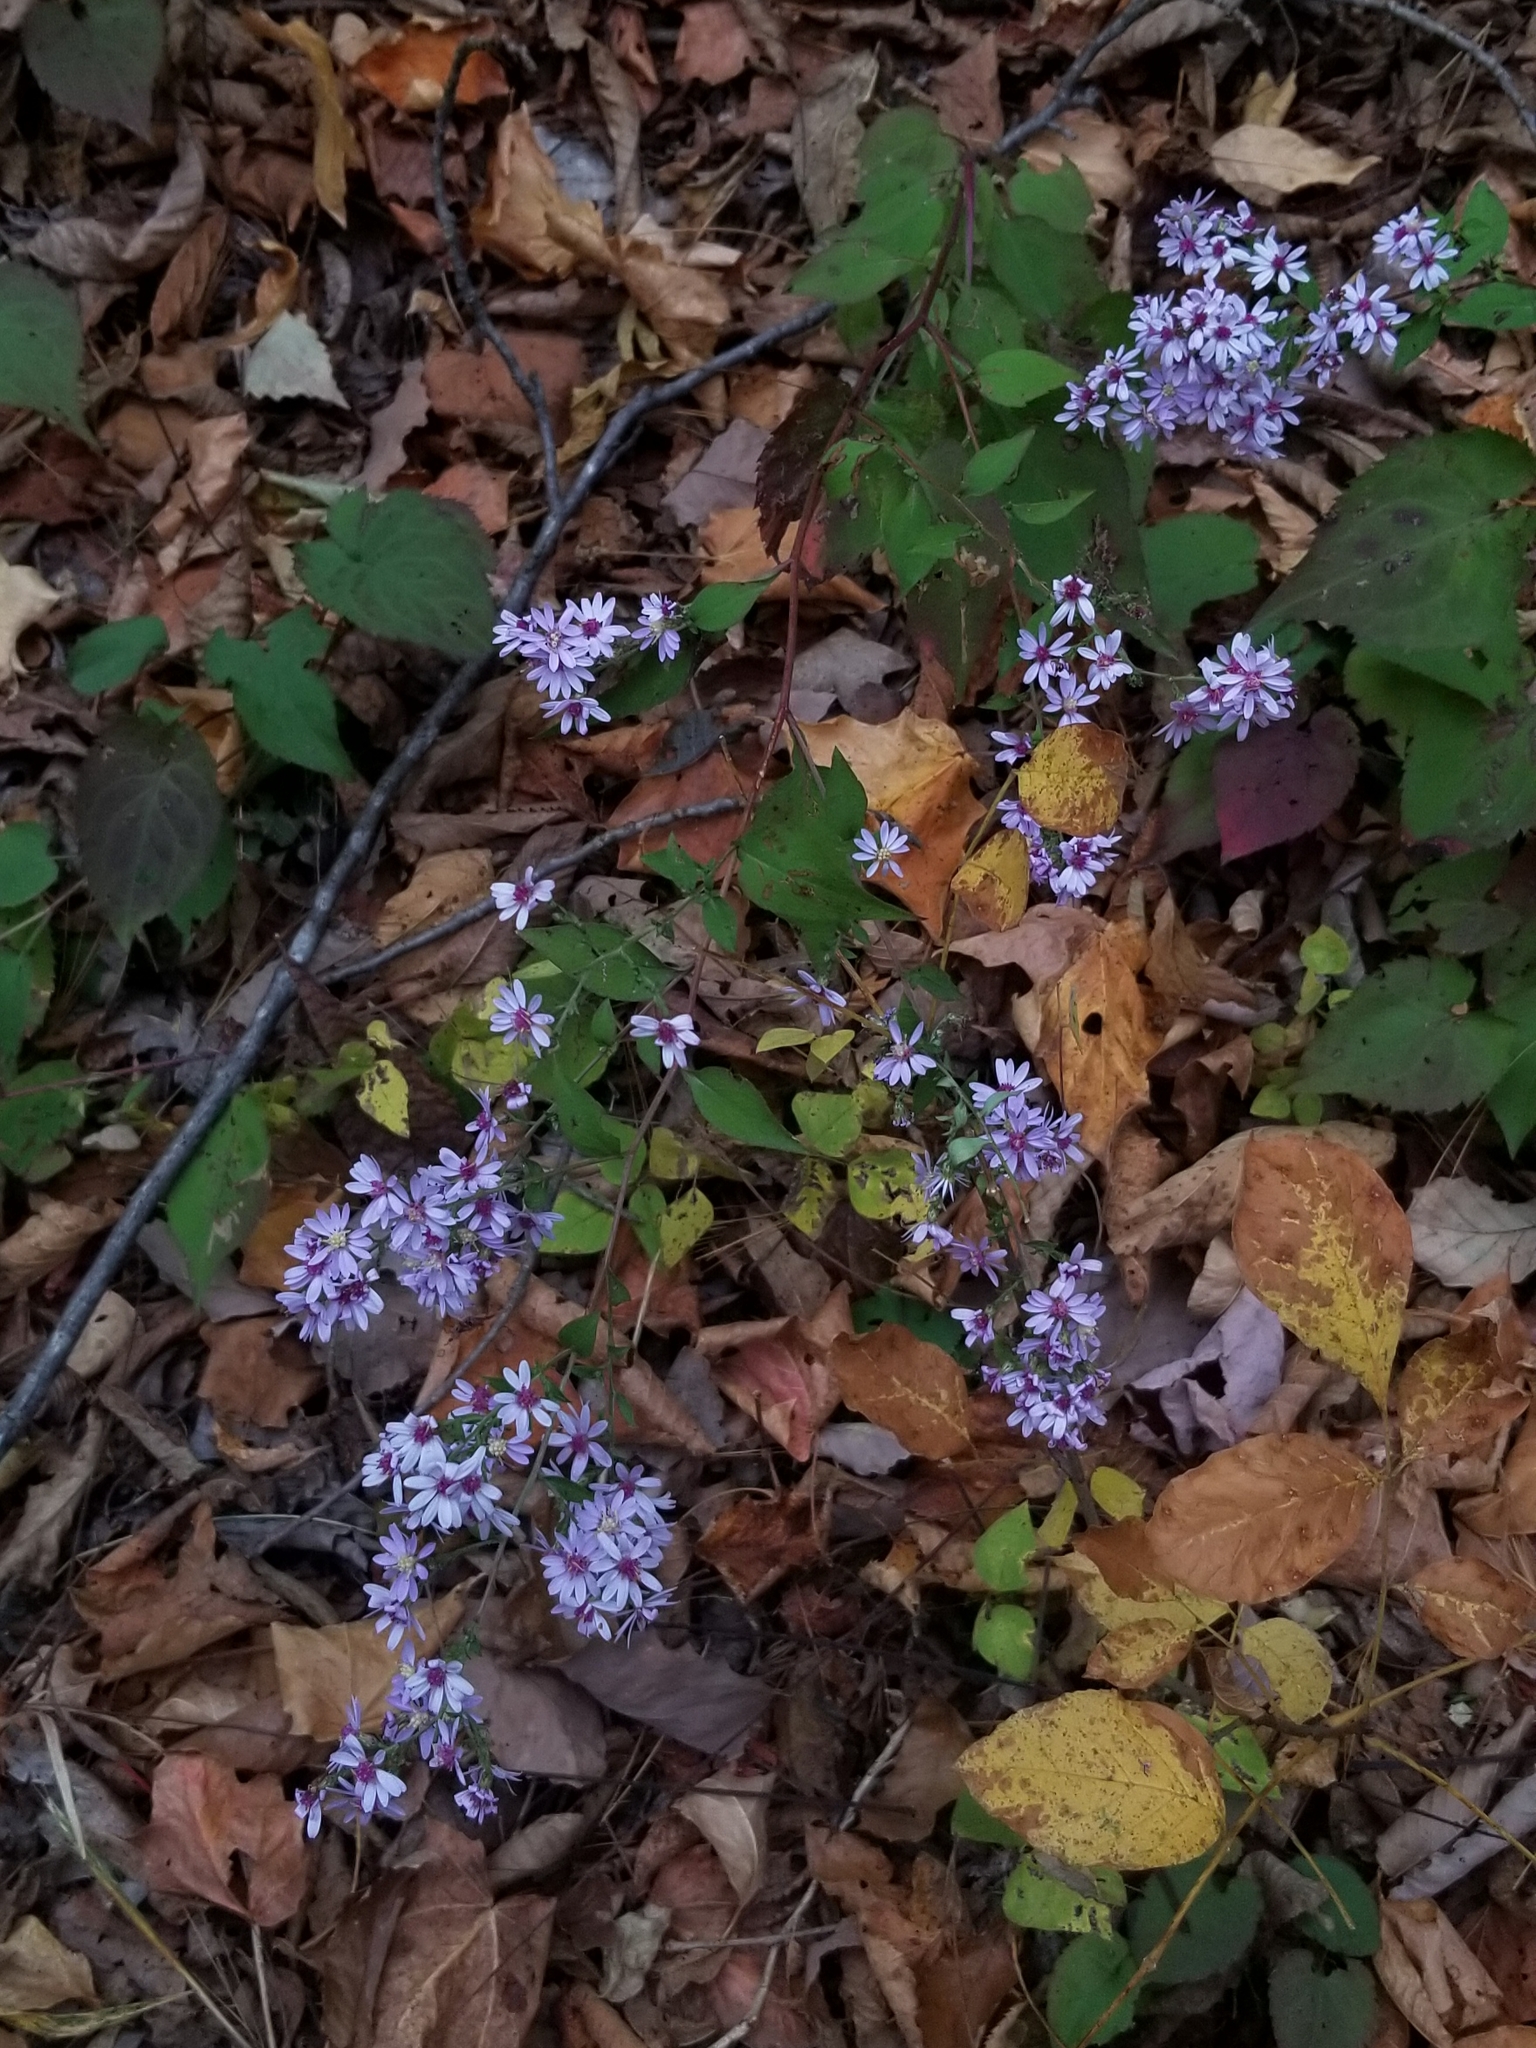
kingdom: Plantae
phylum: Tracheophyta
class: Magnoliopsida
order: Asterales
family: Asteraceae
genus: Symphyotrichum
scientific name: Symphyotrichum cordifolium
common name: Beeweed
